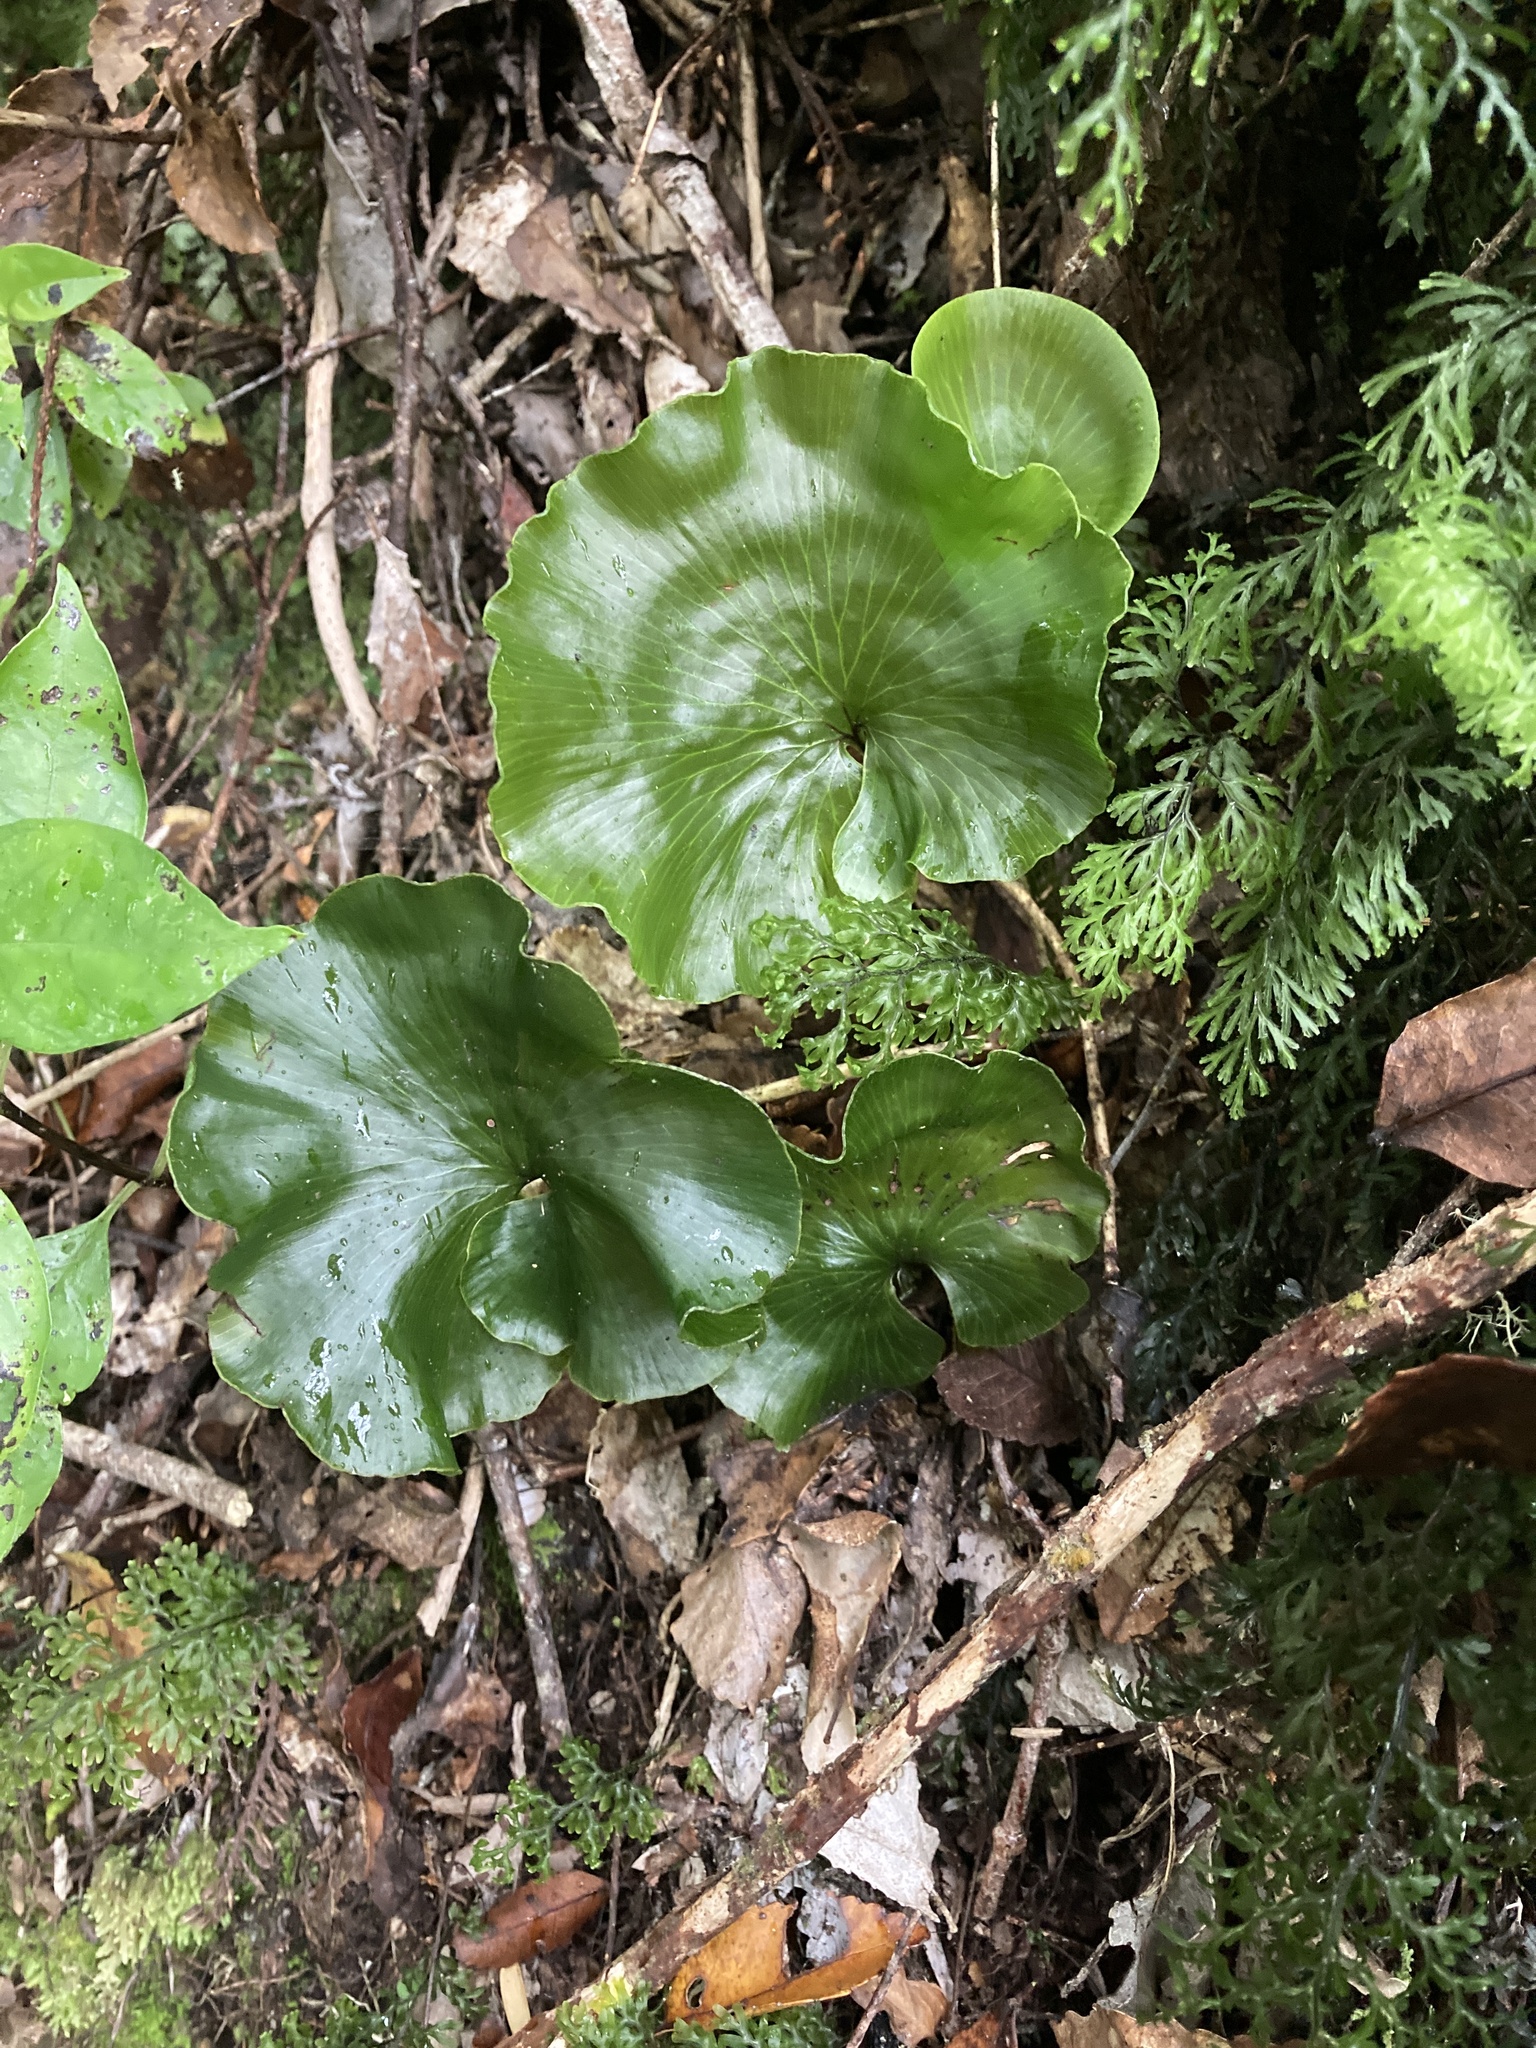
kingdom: Plantae
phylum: Tracheophyta
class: Polypodiopsida
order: Hymenophyllales
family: Hymenophyllaceae
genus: Hymenophyllum
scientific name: Hymenophyllum nephrophyllum
